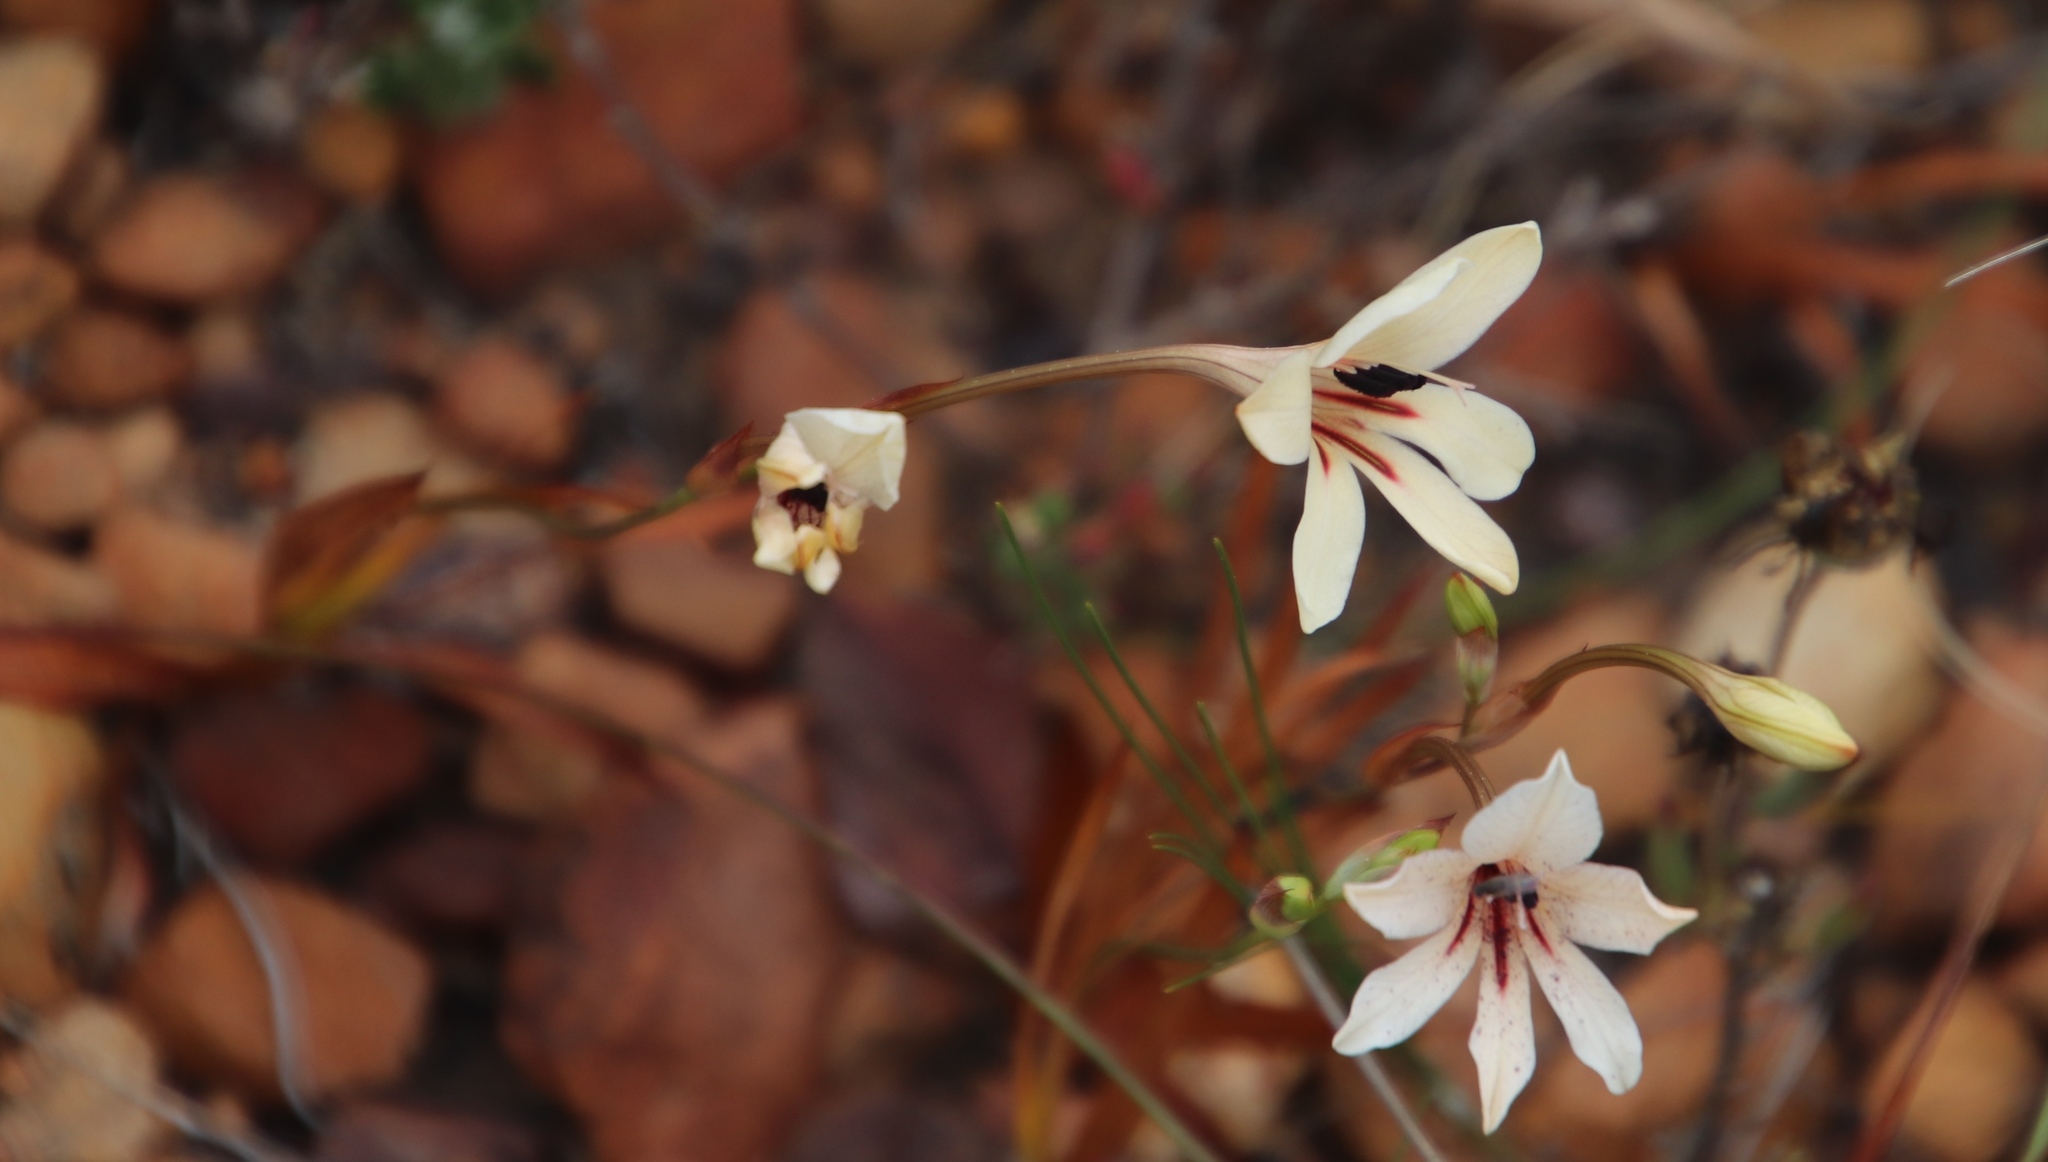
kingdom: Plantae
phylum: Tracheophyta
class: Liliopsida
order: Asparagales
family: Iridaceae
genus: Tritonia
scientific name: Tritonia flabellifolia
